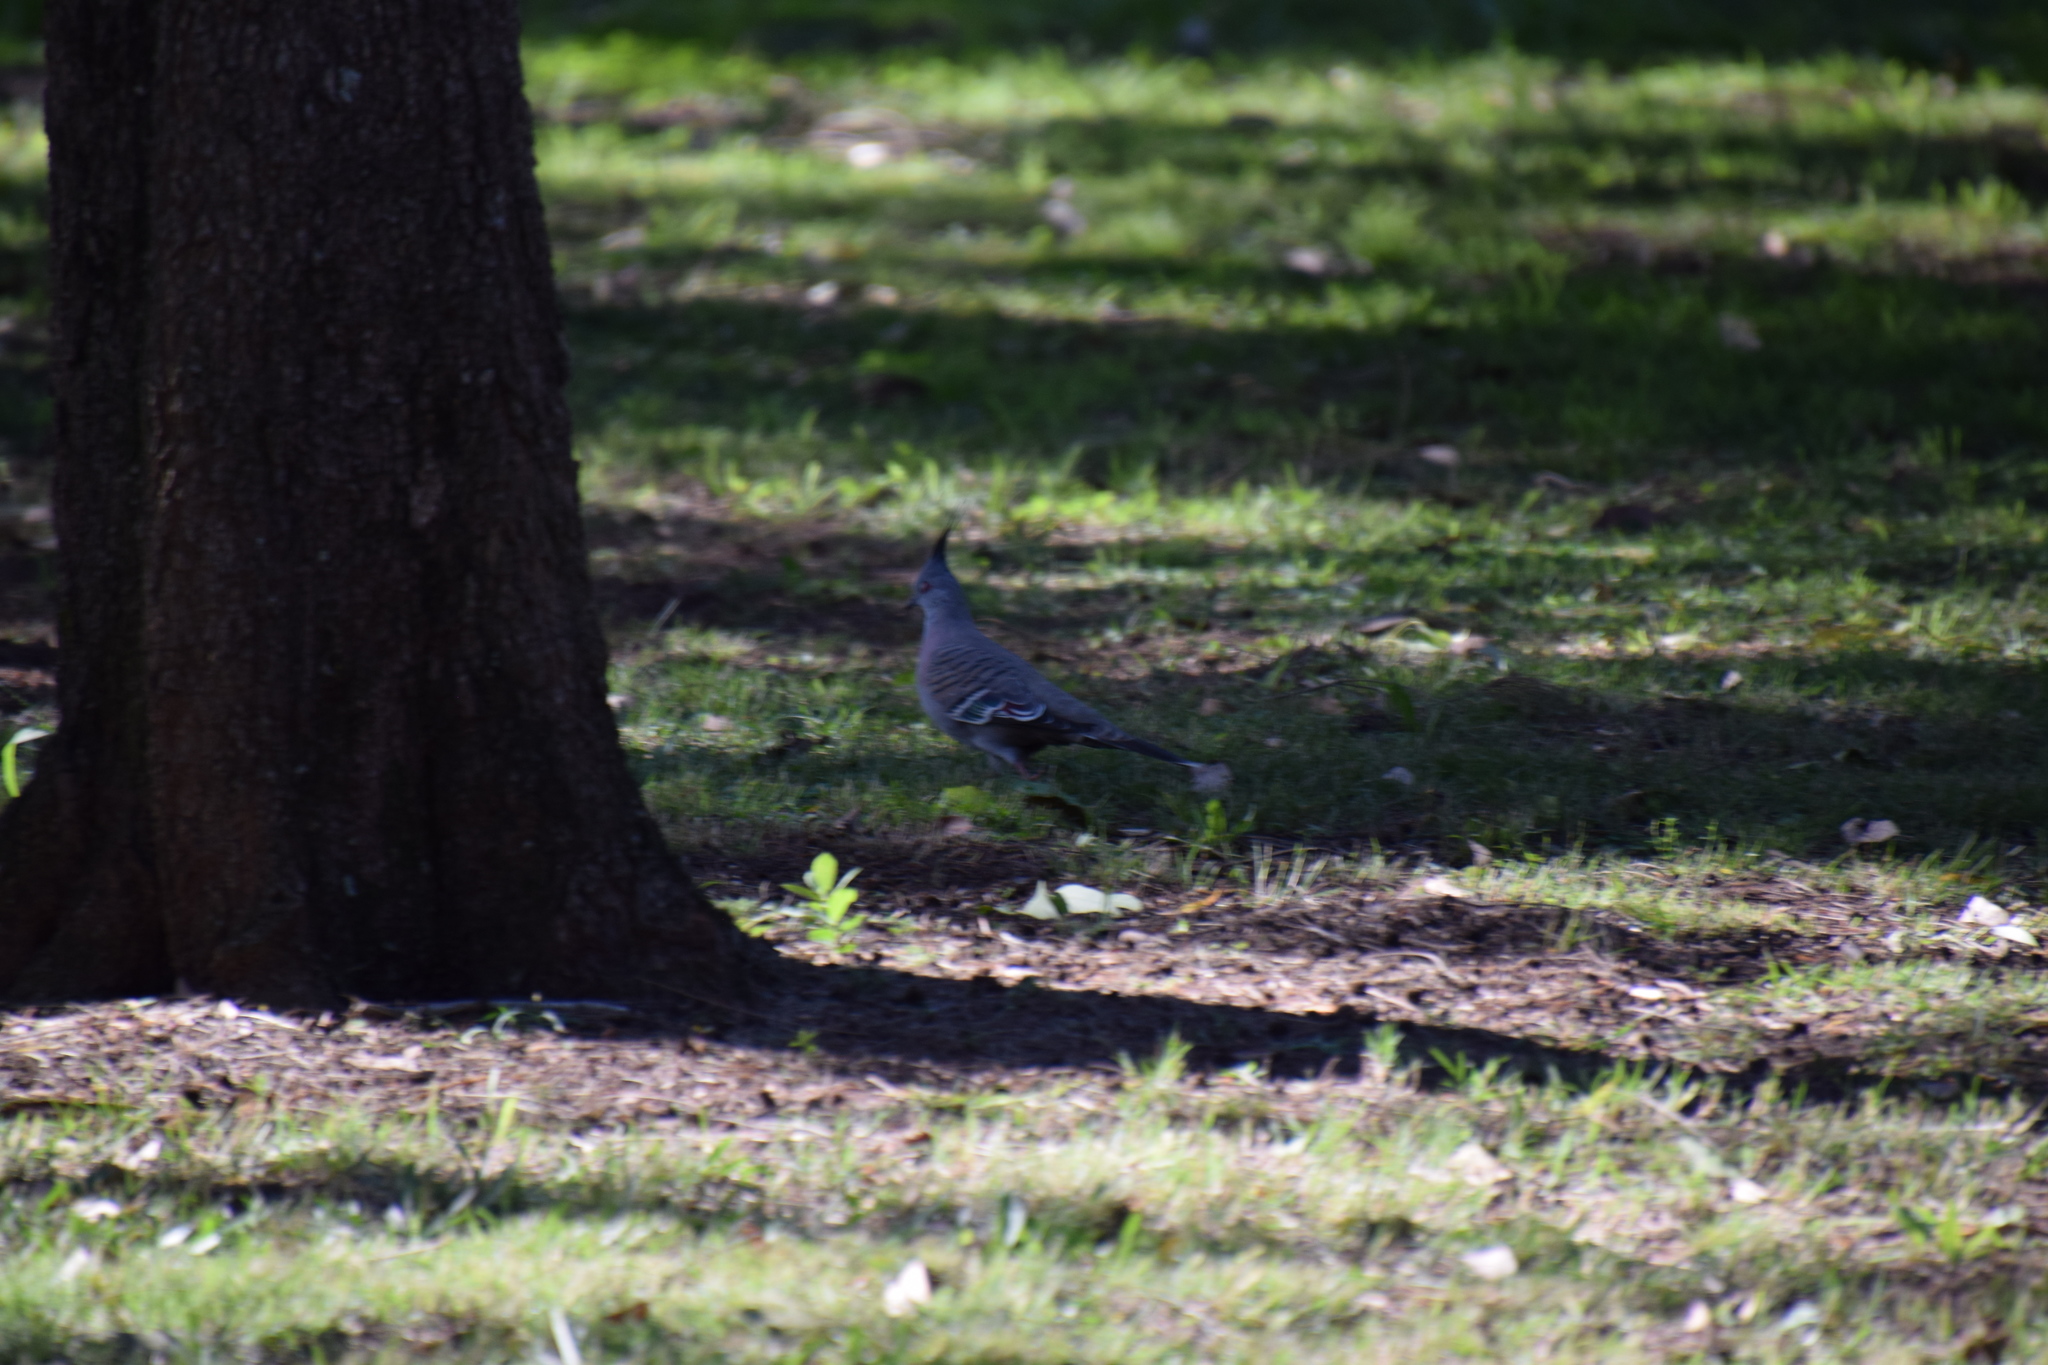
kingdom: Animalia
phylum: Chordata
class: Aves
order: Columbiformes
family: Columbidae
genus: Ocyphaps
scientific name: Ocyphaps lophotes
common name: Crested pigeon
